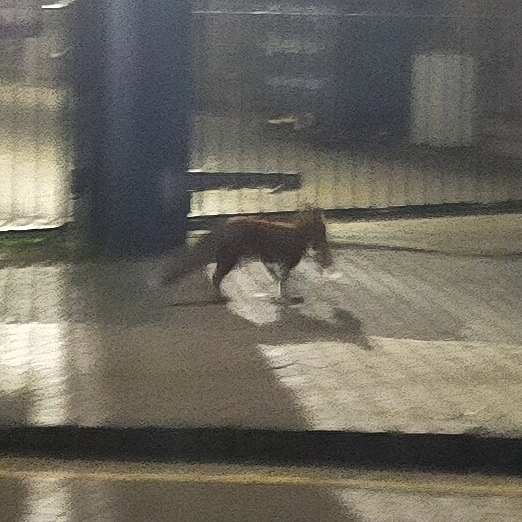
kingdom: Animalia
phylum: Chordata
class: Mammalia
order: Carnivora
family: Canidae
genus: Vulpes
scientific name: Vulpes vulpes
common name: Red fox
